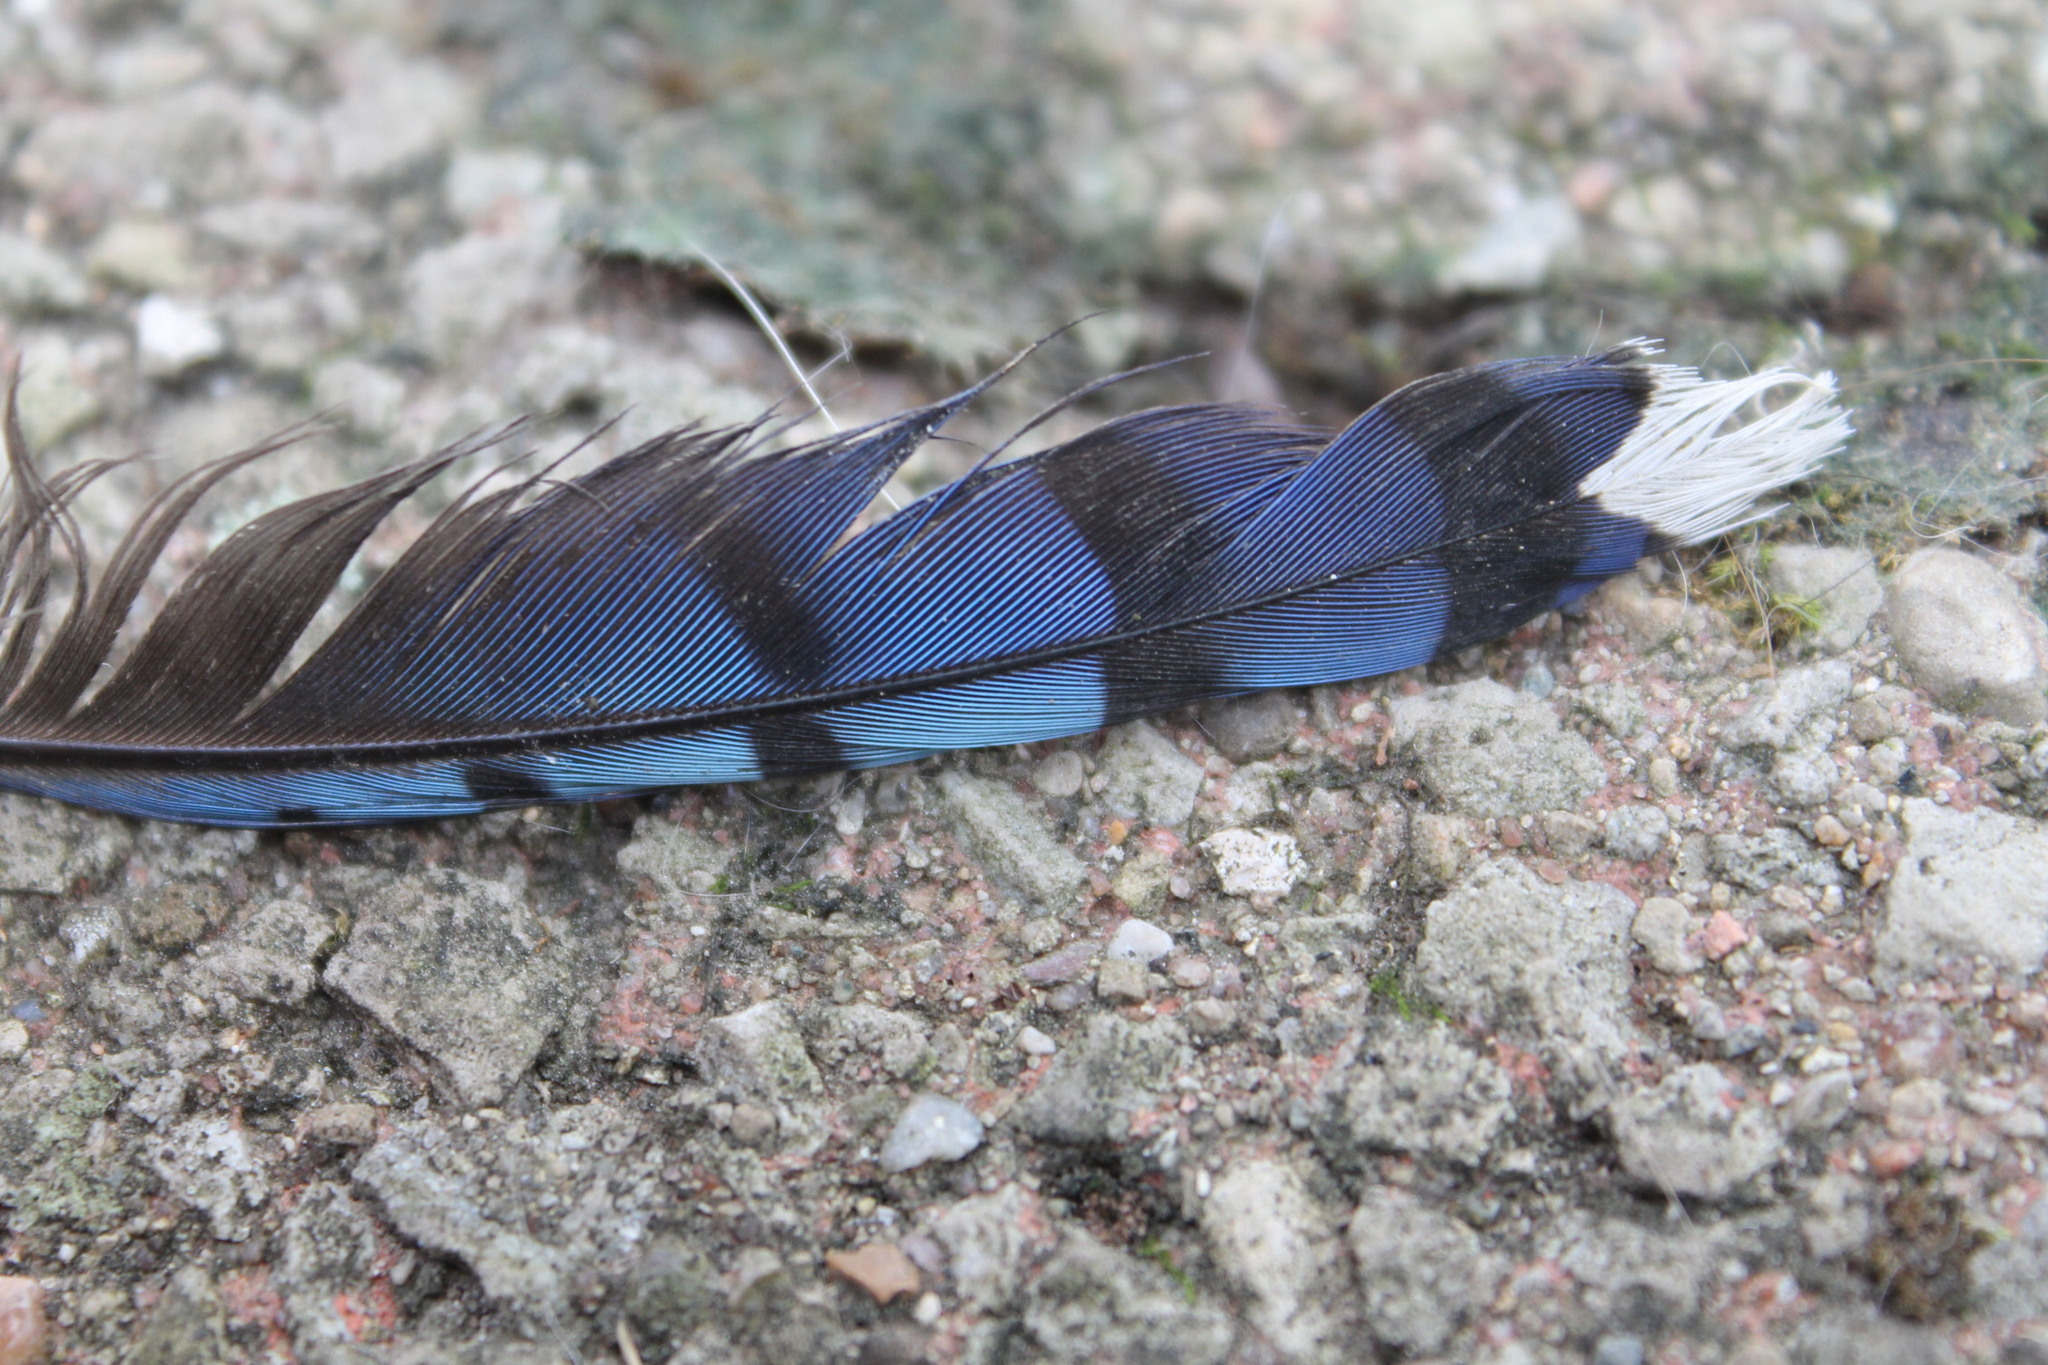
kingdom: Animalia
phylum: Chordata
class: Aves
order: Passeriformes
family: Corvidae
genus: Cyanocitta
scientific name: Cyanocitta cristata
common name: Blue jay
